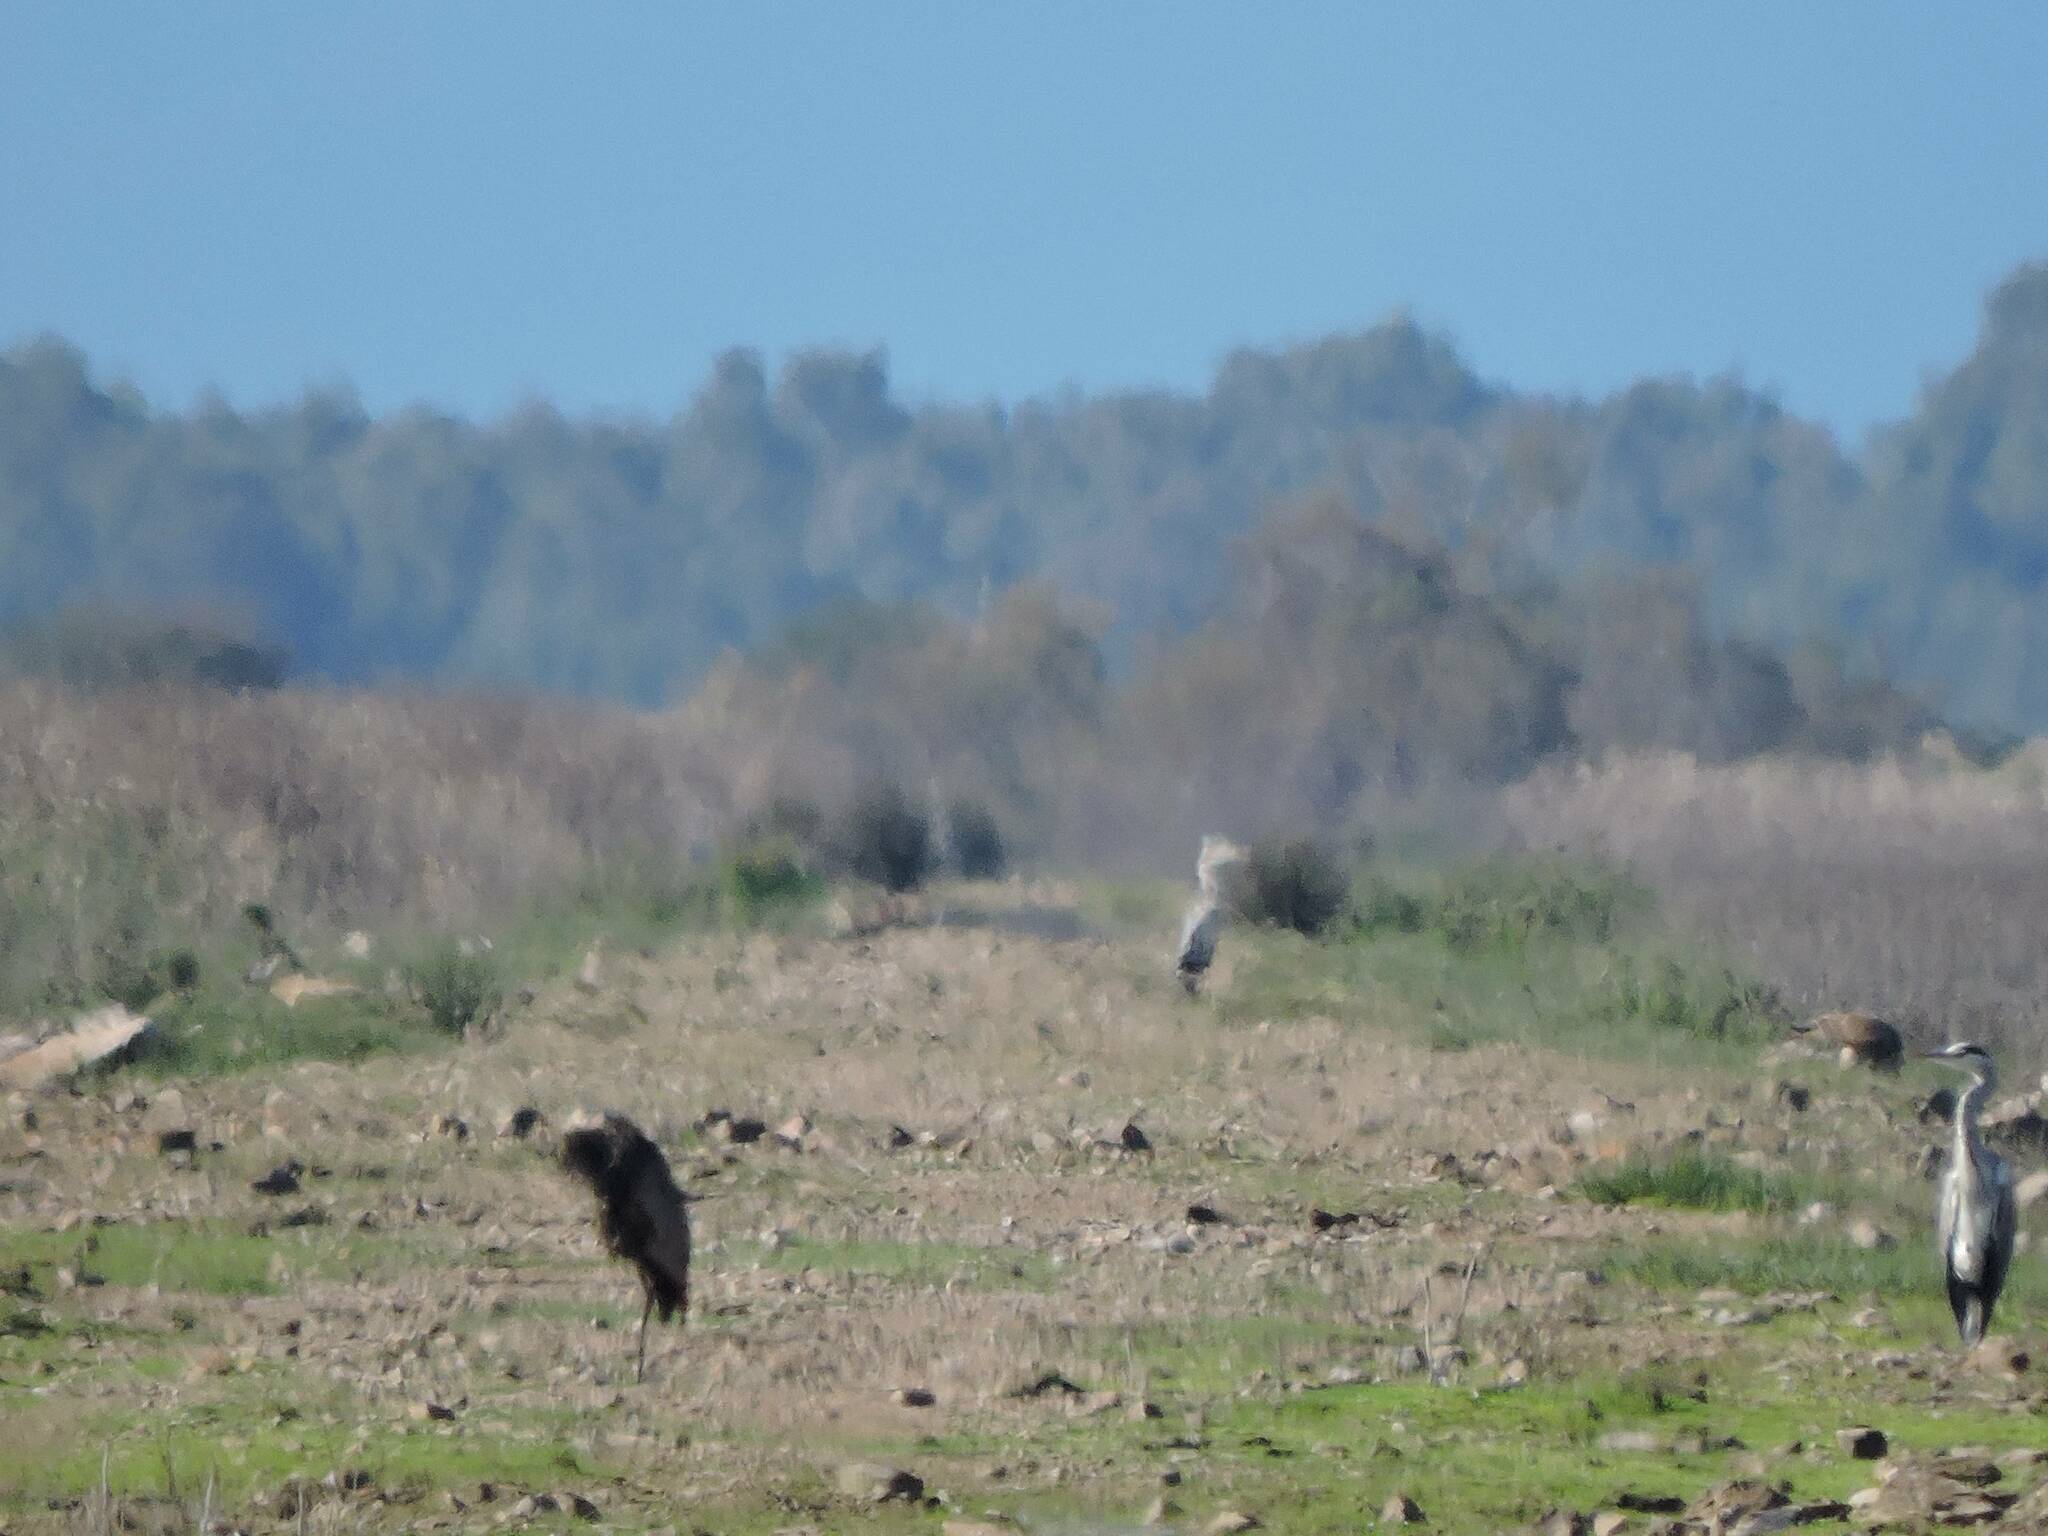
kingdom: Animalia
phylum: Chordata
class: Aves
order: Pelecaniformes
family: Ardeidae
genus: Ardea
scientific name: Ardea cinerea
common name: Grey heron
